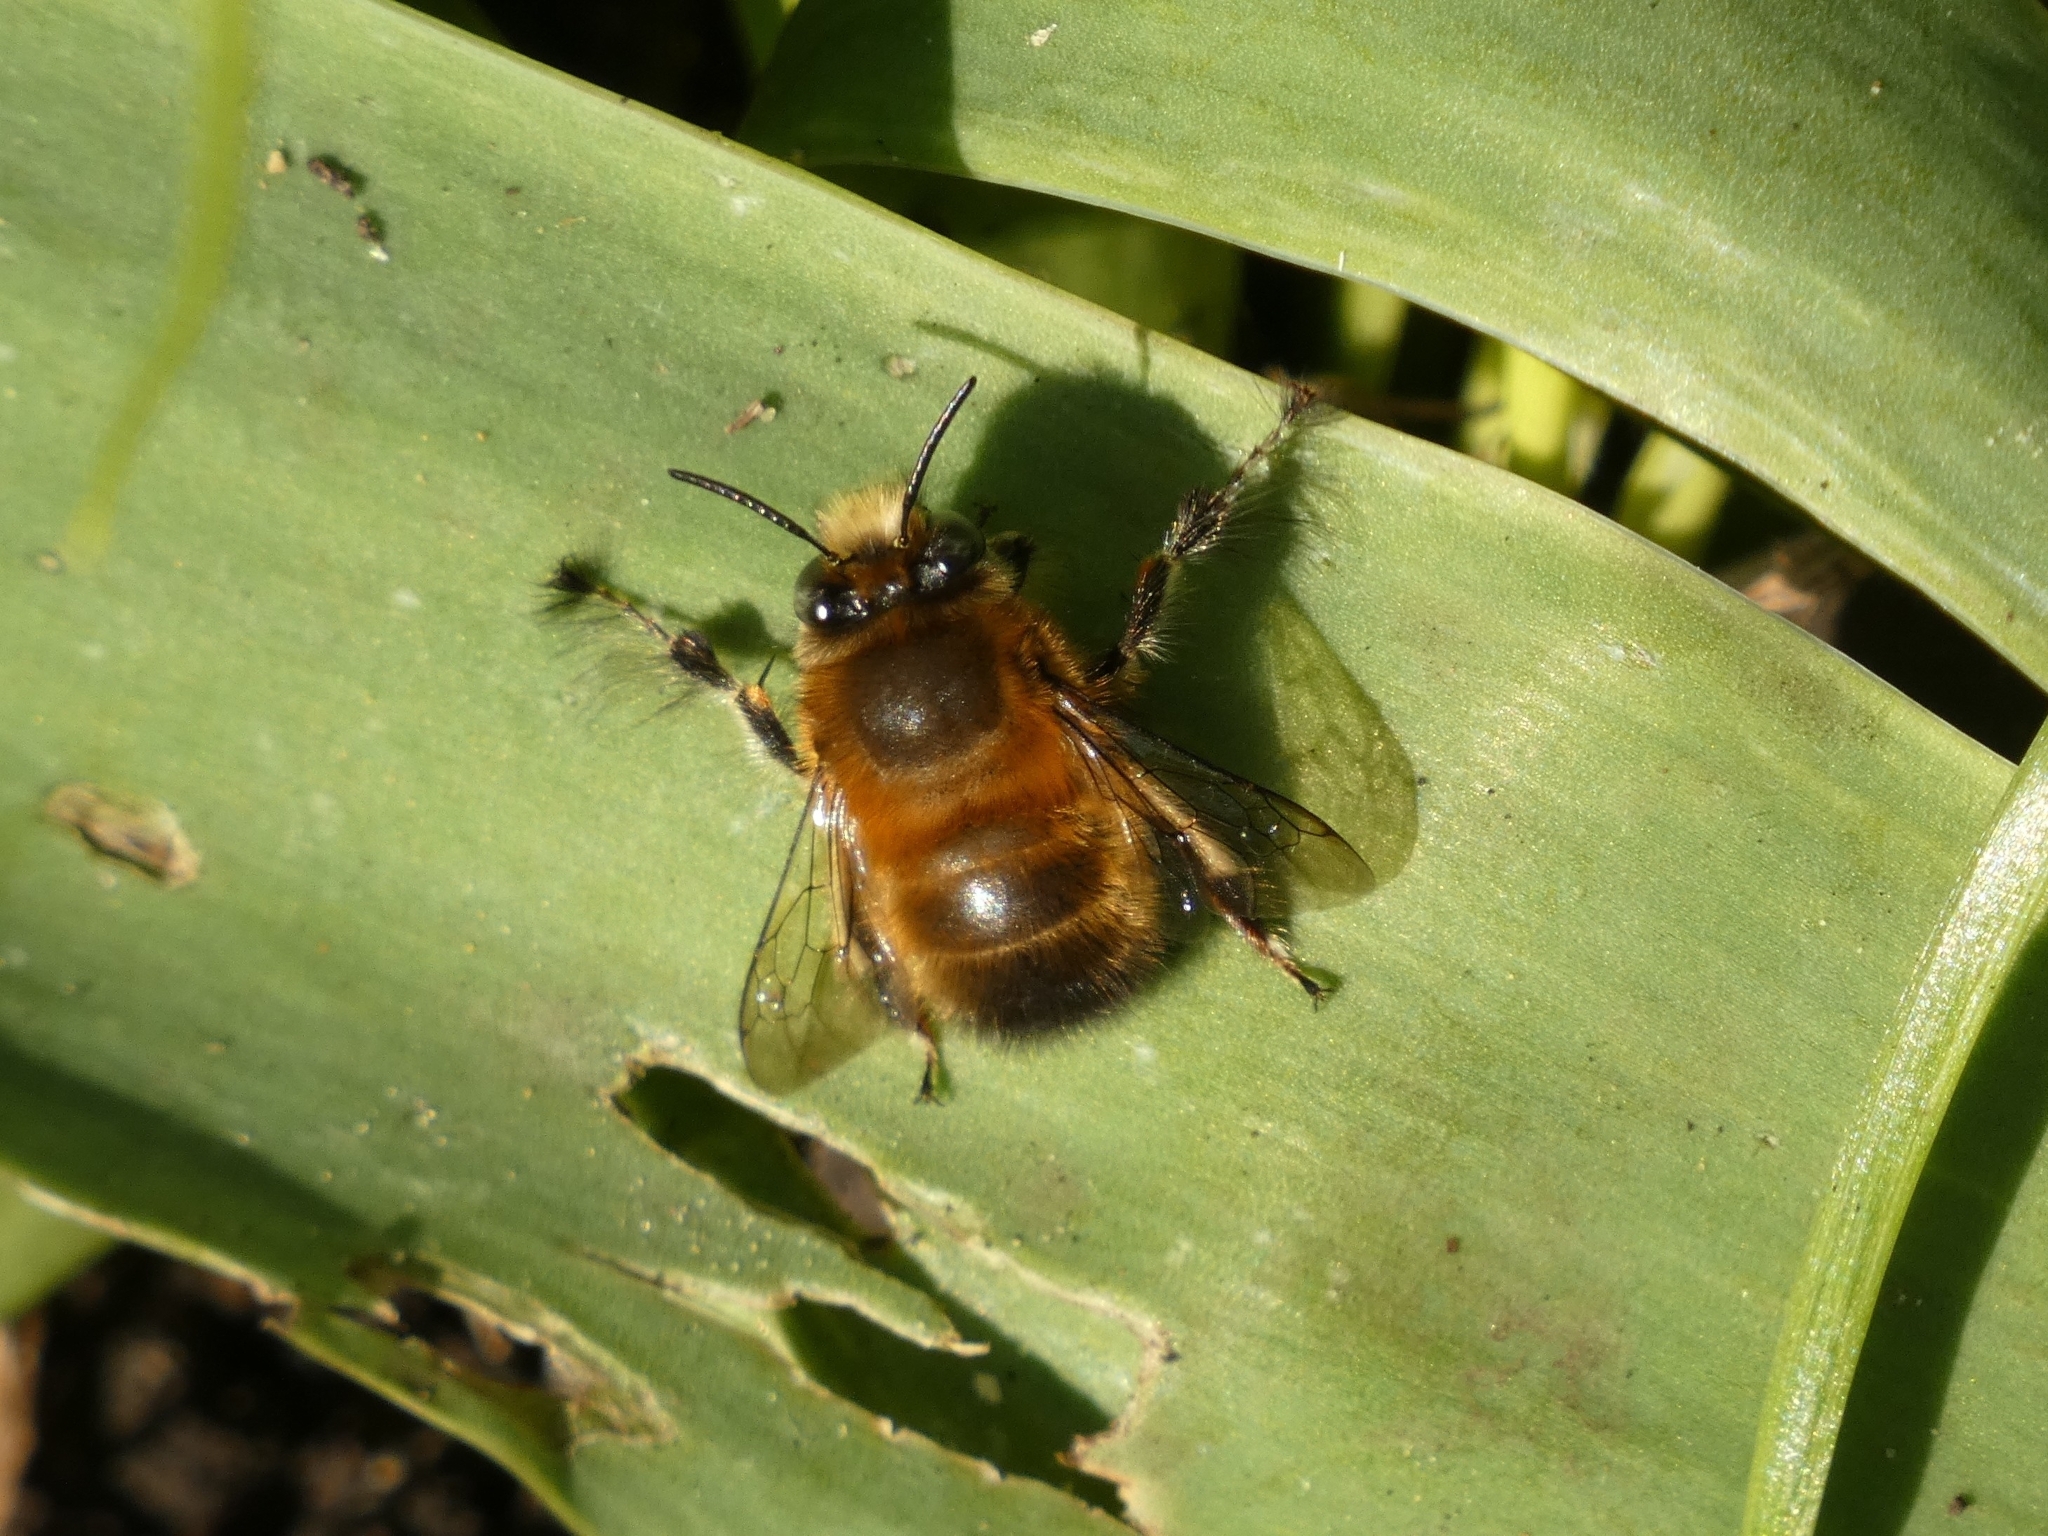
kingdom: Animalia
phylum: Arthropoda
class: Insecta
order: Hymenoptera
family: Apidae
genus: Anthophora
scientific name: Anthophora plumipes
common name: Hairy-footed flower bee
